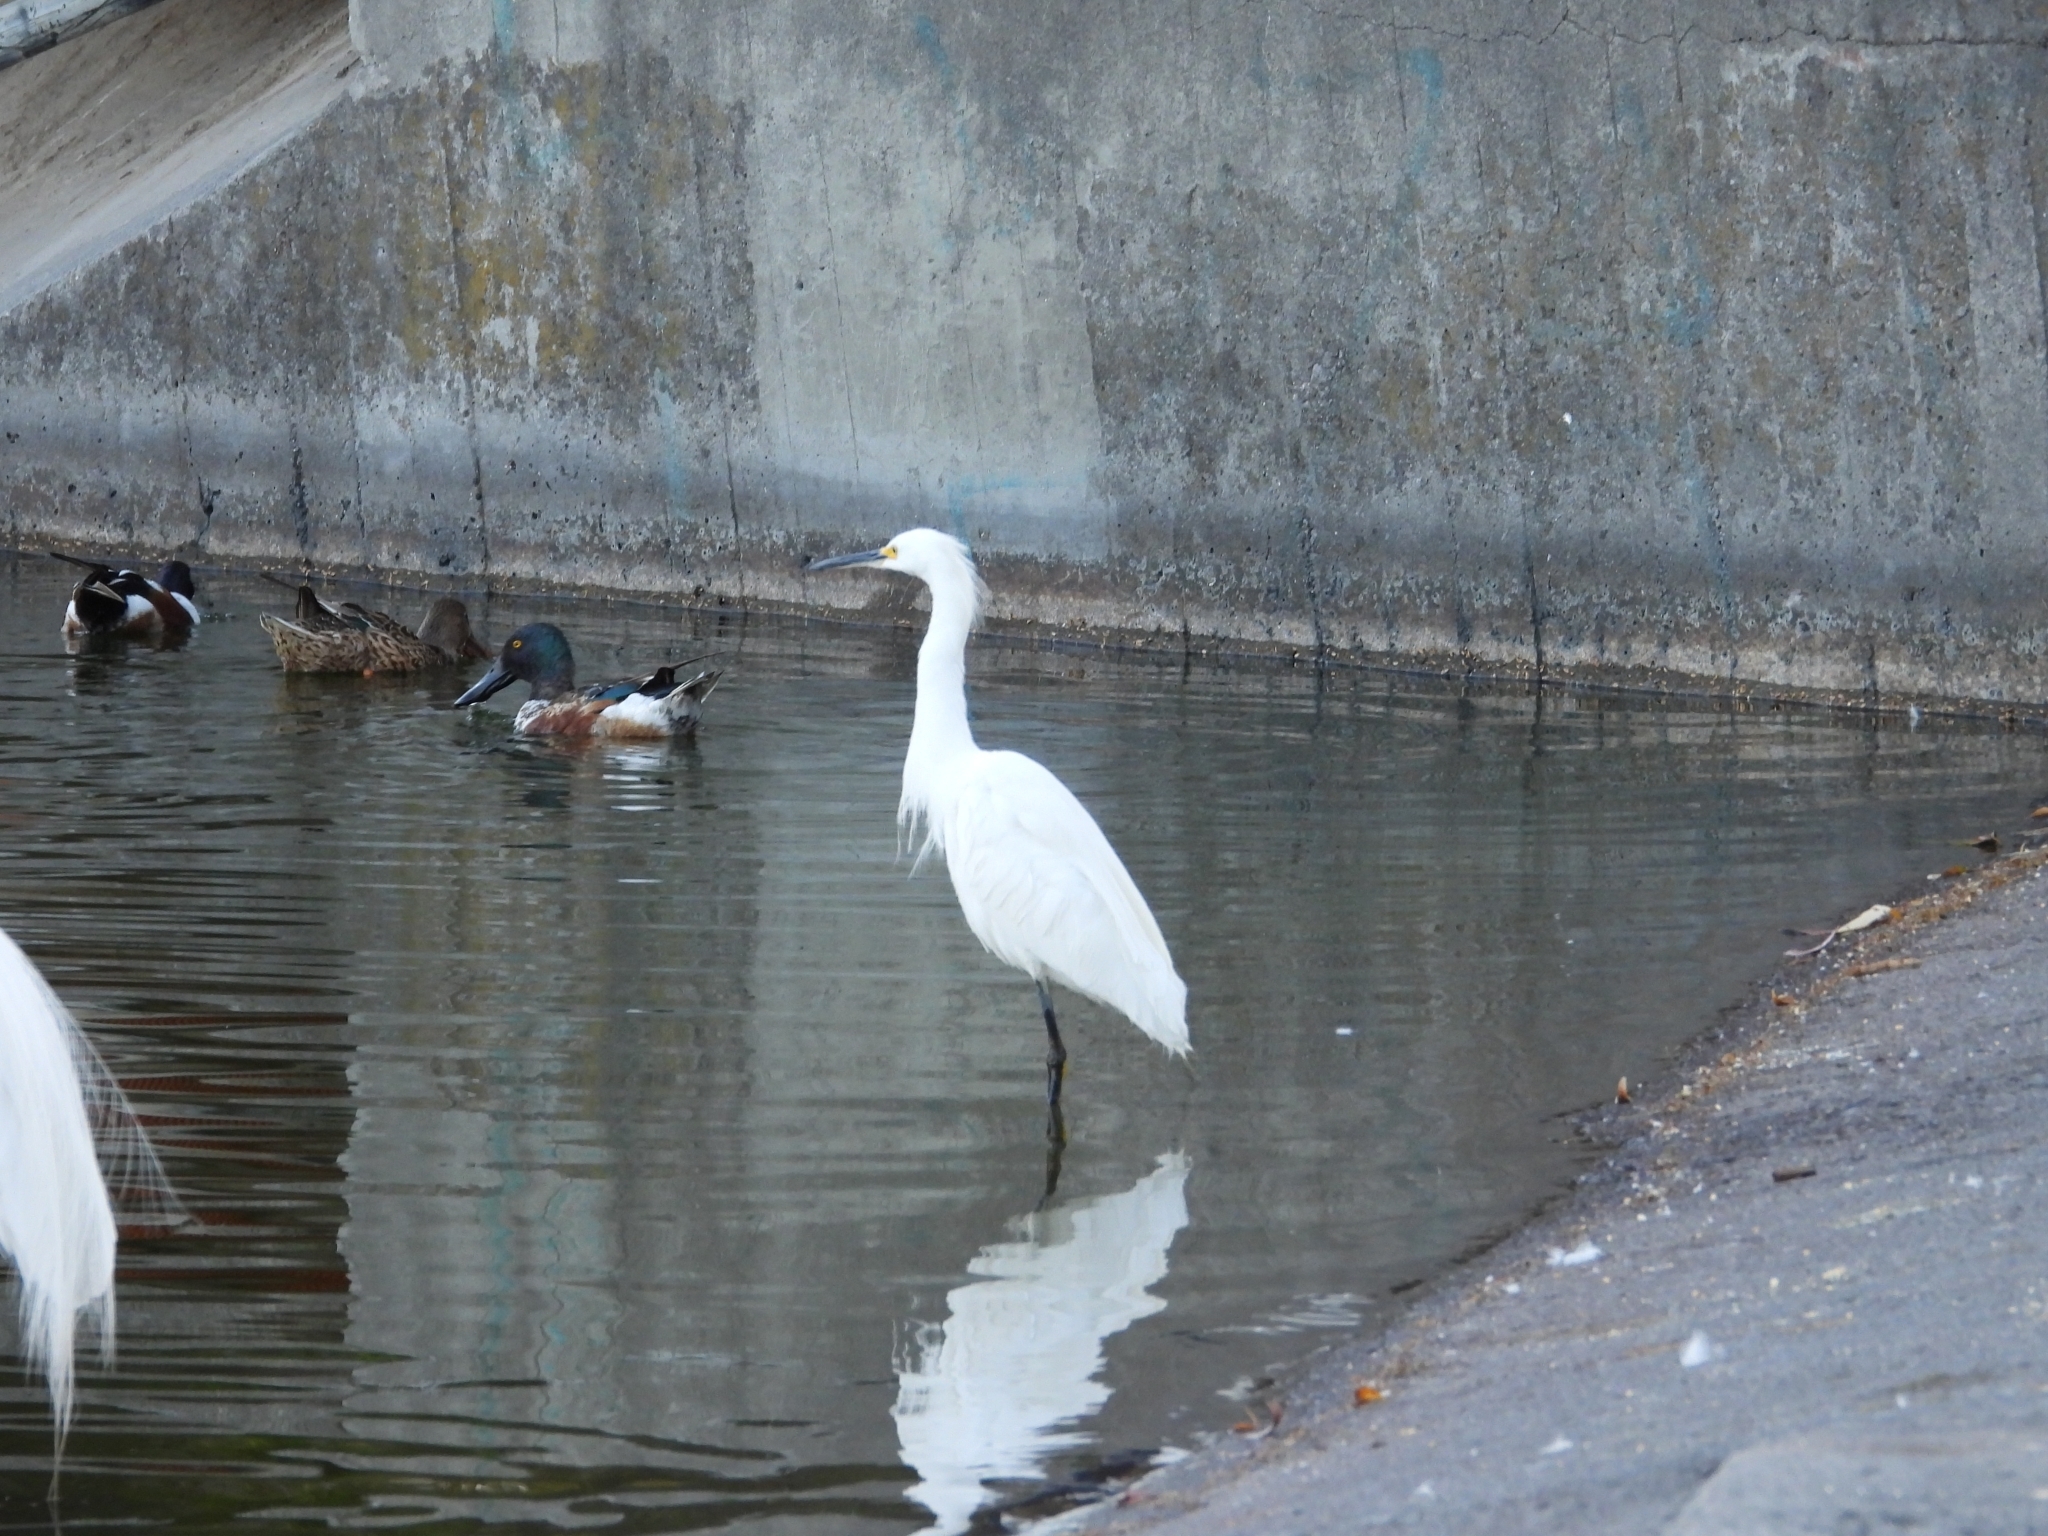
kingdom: Animalia
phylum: Chordata
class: Aves
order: Pelecaniformes
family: Ardeidae
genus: Egretta
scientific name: Egretta thula
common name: Snowy egret
